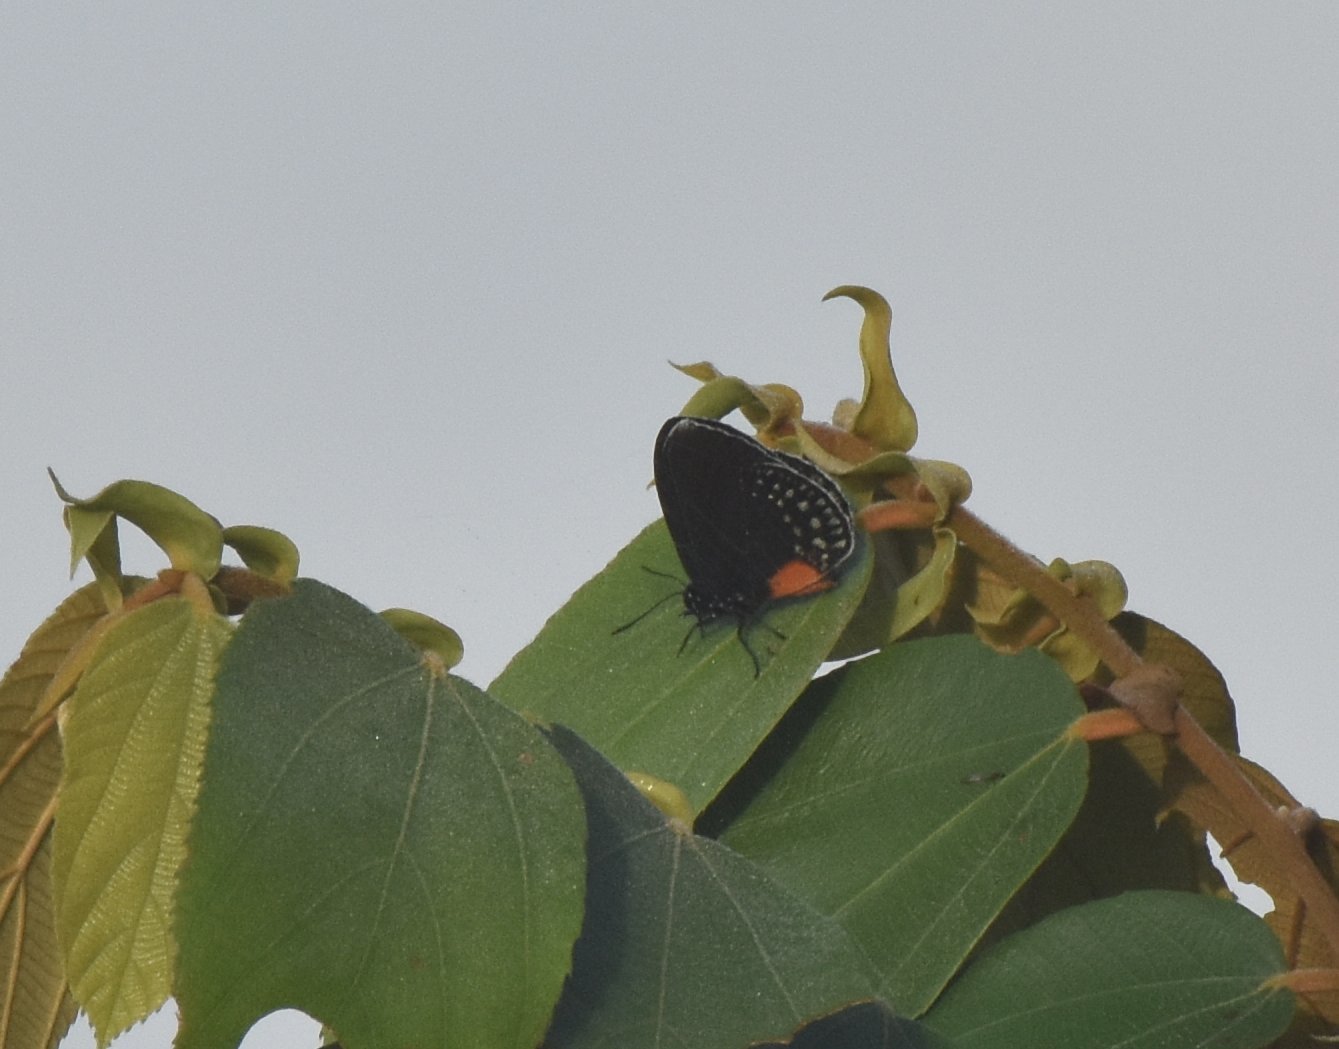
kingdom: Animalia
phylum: Arthropoda
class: Insecta
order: Lepidoptera
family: Lycaenidae
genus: Eumaeus
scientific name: Eumaeus godartii
